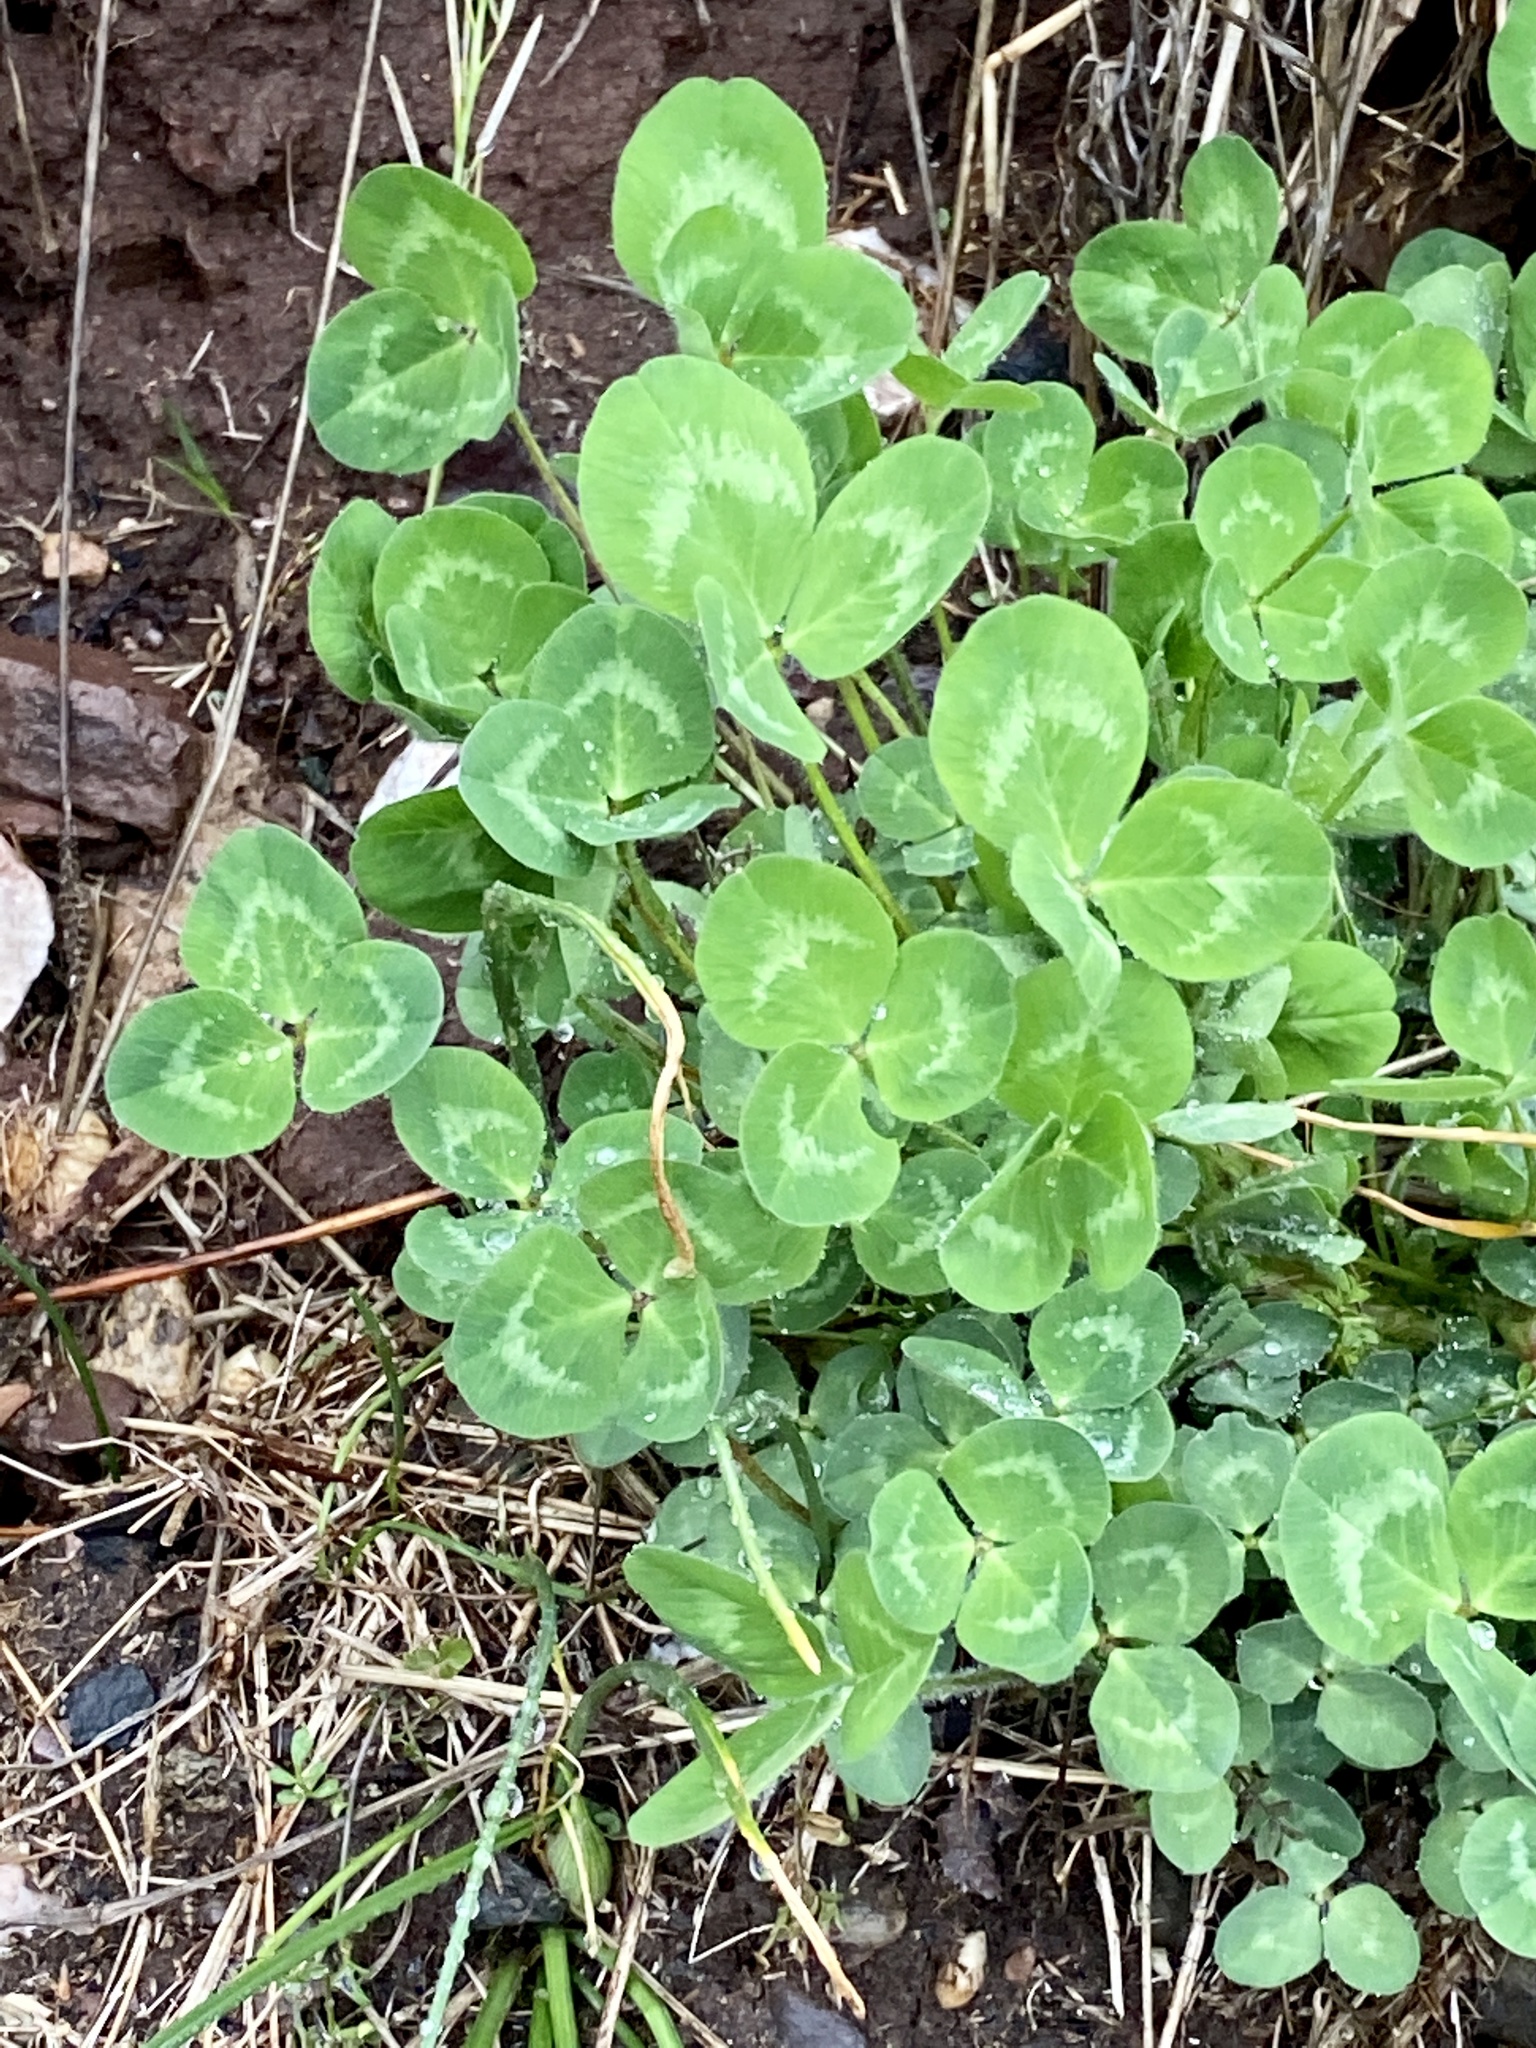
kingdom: Plantae
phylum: Tracheophyta
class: Magnoliopsida
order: Fabales
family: Fabaceae
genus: Trifolium
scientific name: Trifolium repens
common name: White clover
